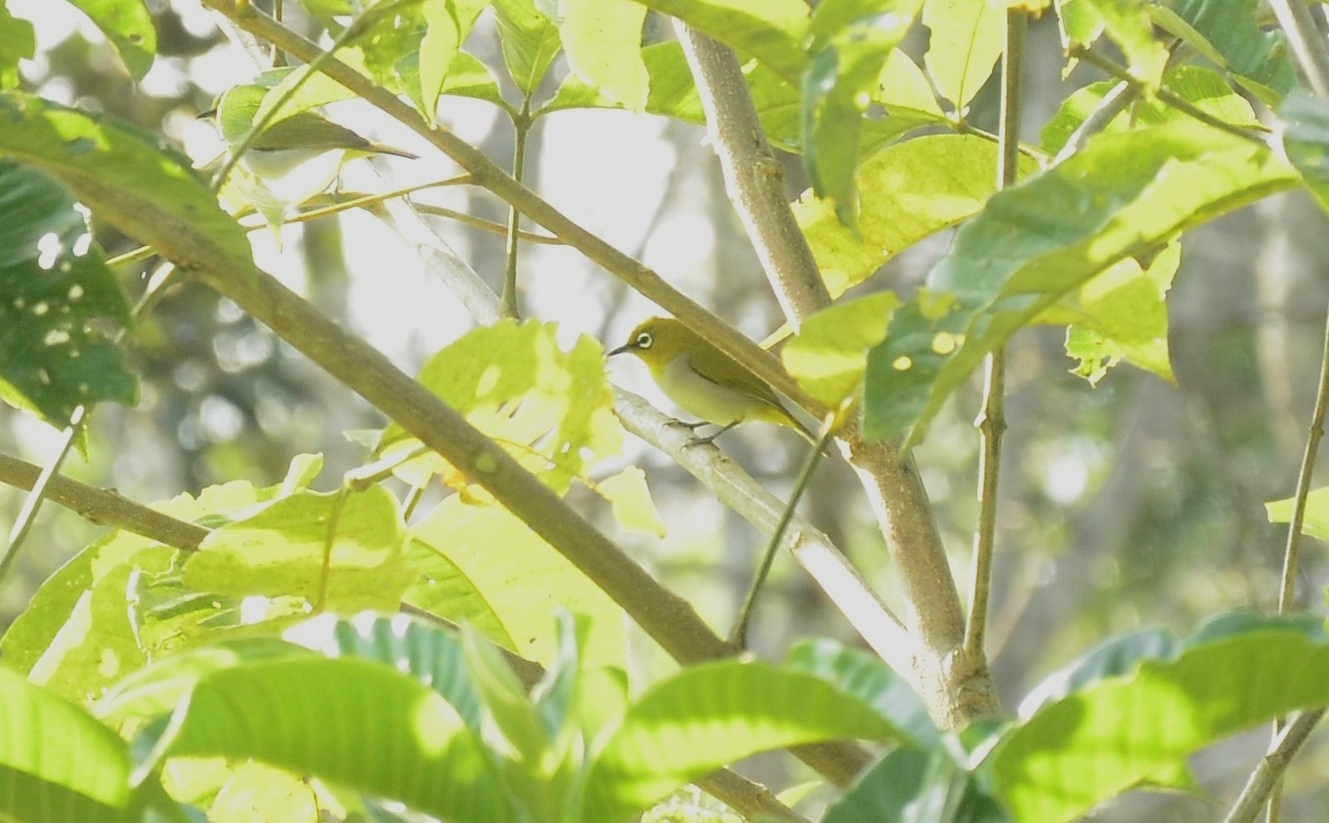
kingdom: Animalia
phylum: Chordata
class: Aves
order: Passeriformes
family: Zosteropidae
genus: Zosterops
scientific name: Zosterops palpebrosus
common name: Oriental white-eye
